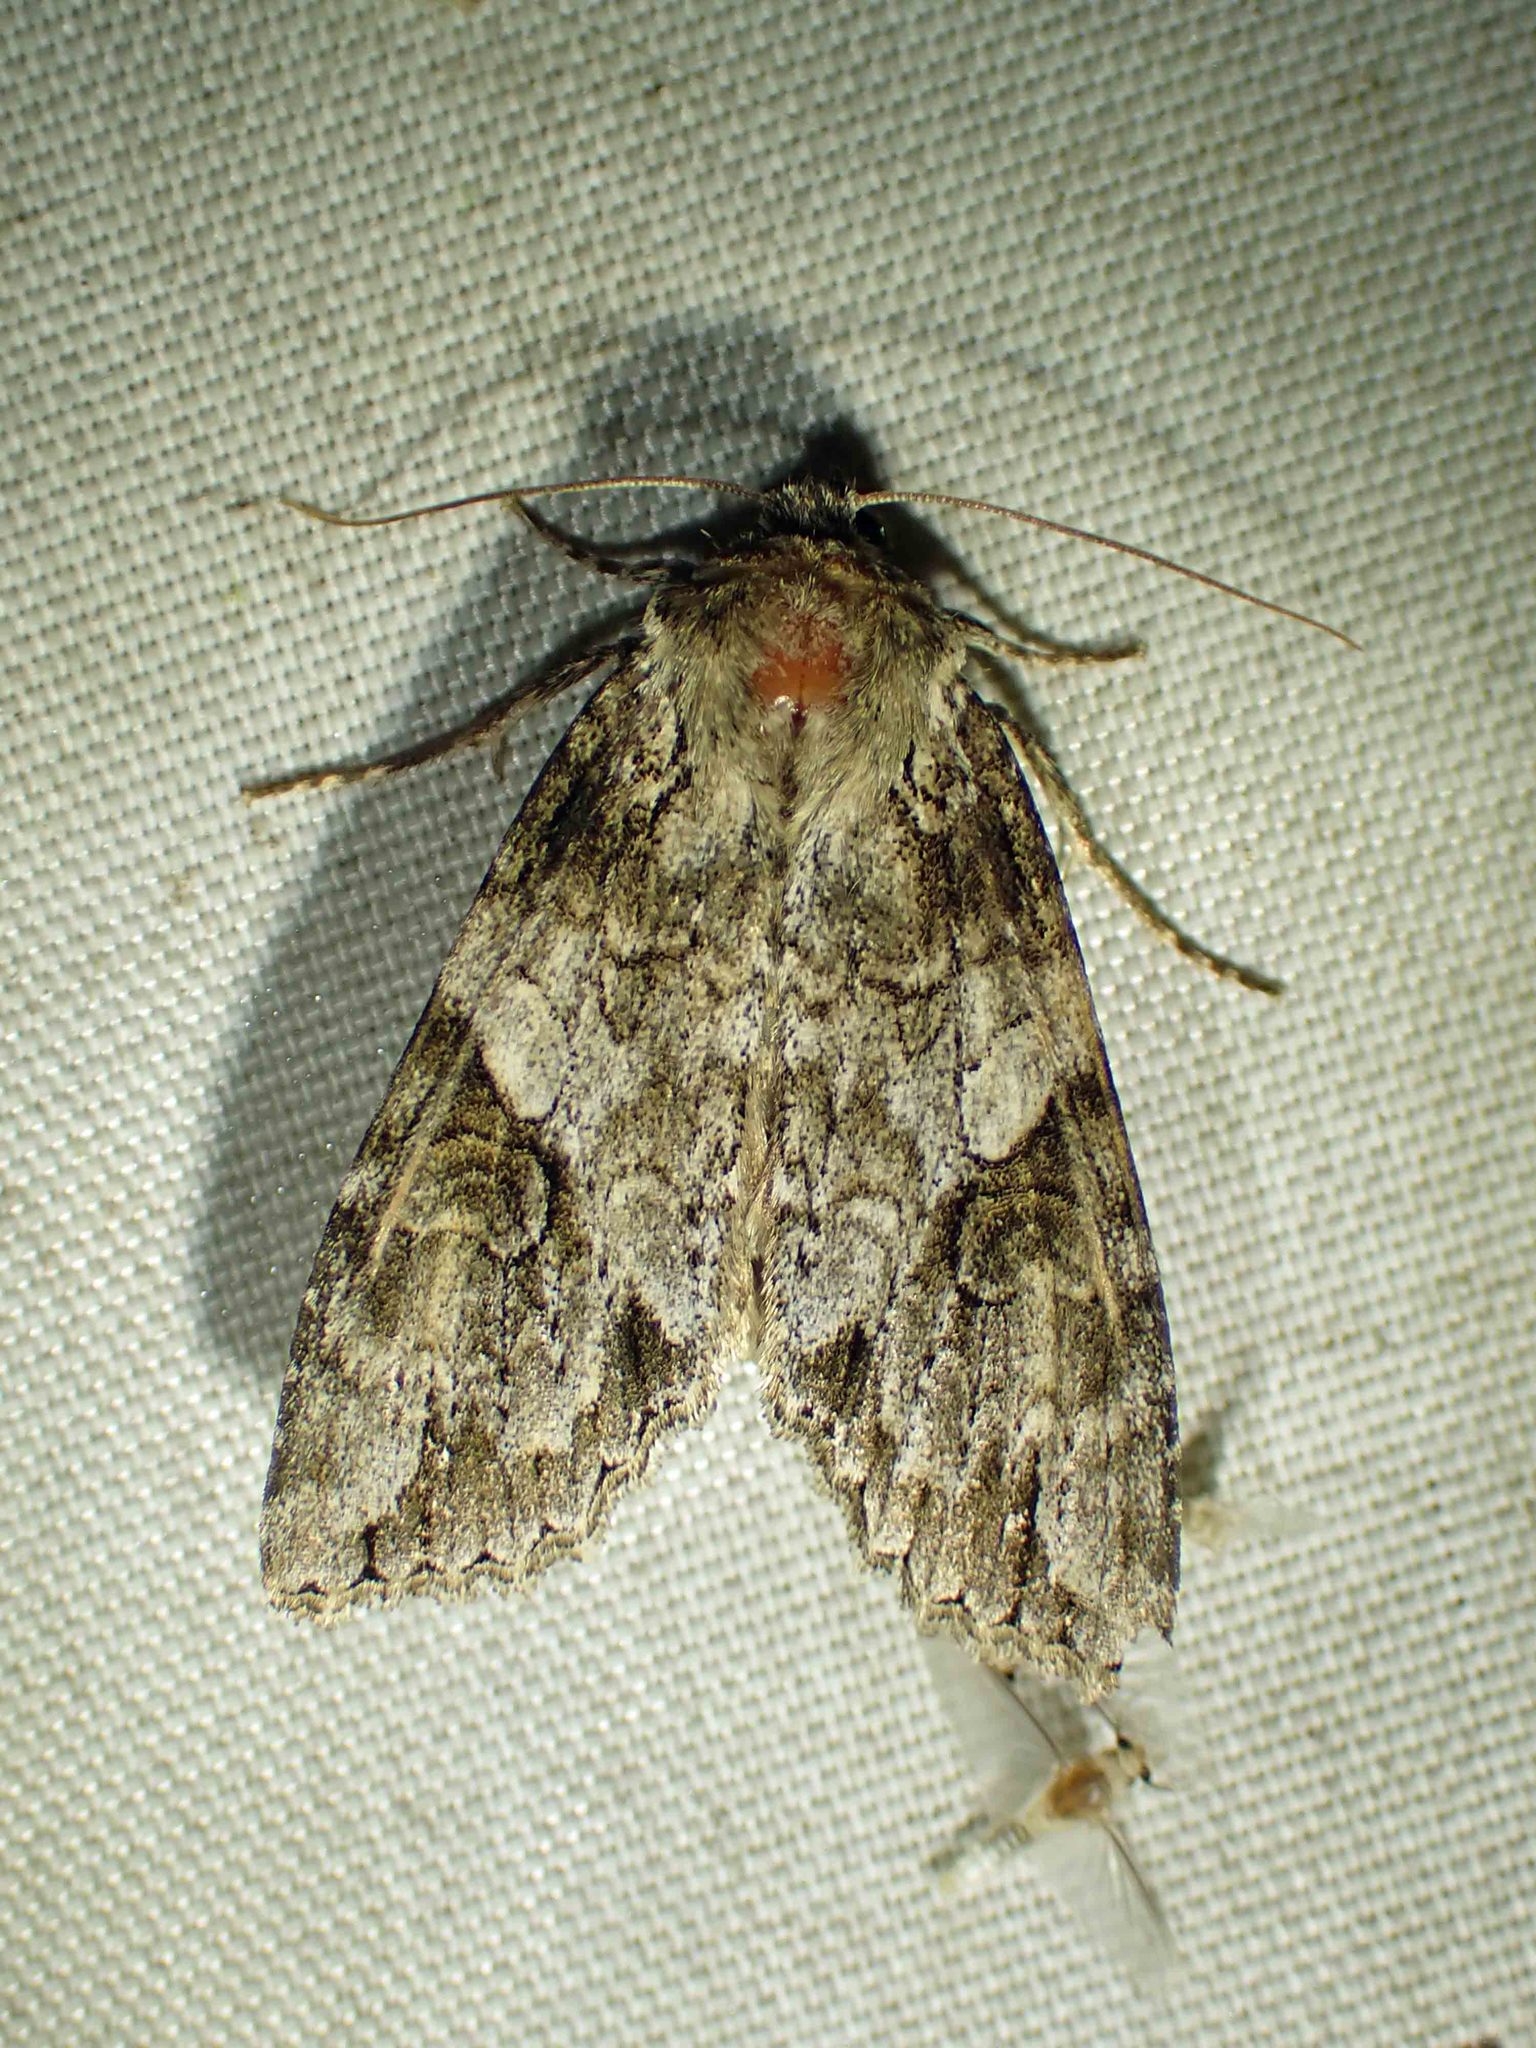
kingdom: Animalia
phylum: Arthropoda
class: Insecta
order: Lepidoptera
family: Noctuidae
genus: Achatia
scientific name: Achatia latex
